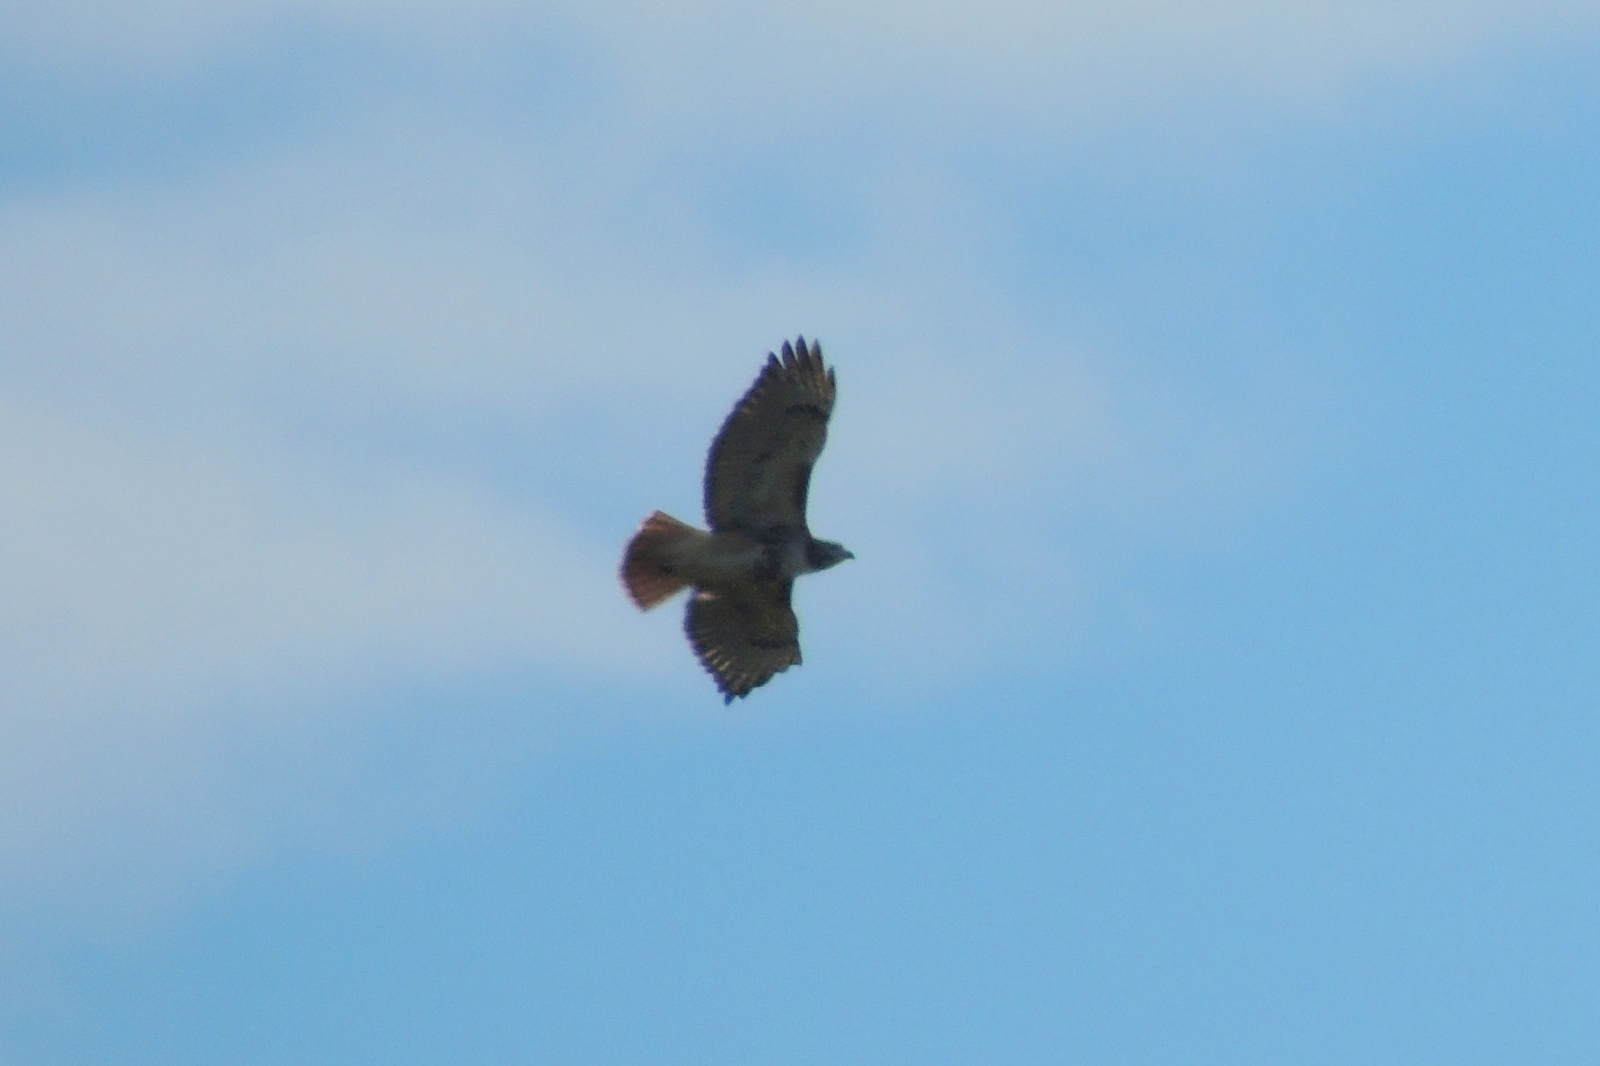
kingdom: Animalia
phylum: Chordata
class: Aves
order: Accipitriformes
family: Accipitridae
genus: Buteo
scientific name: Buteo jamaicensis
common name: Red-tailed hawk
